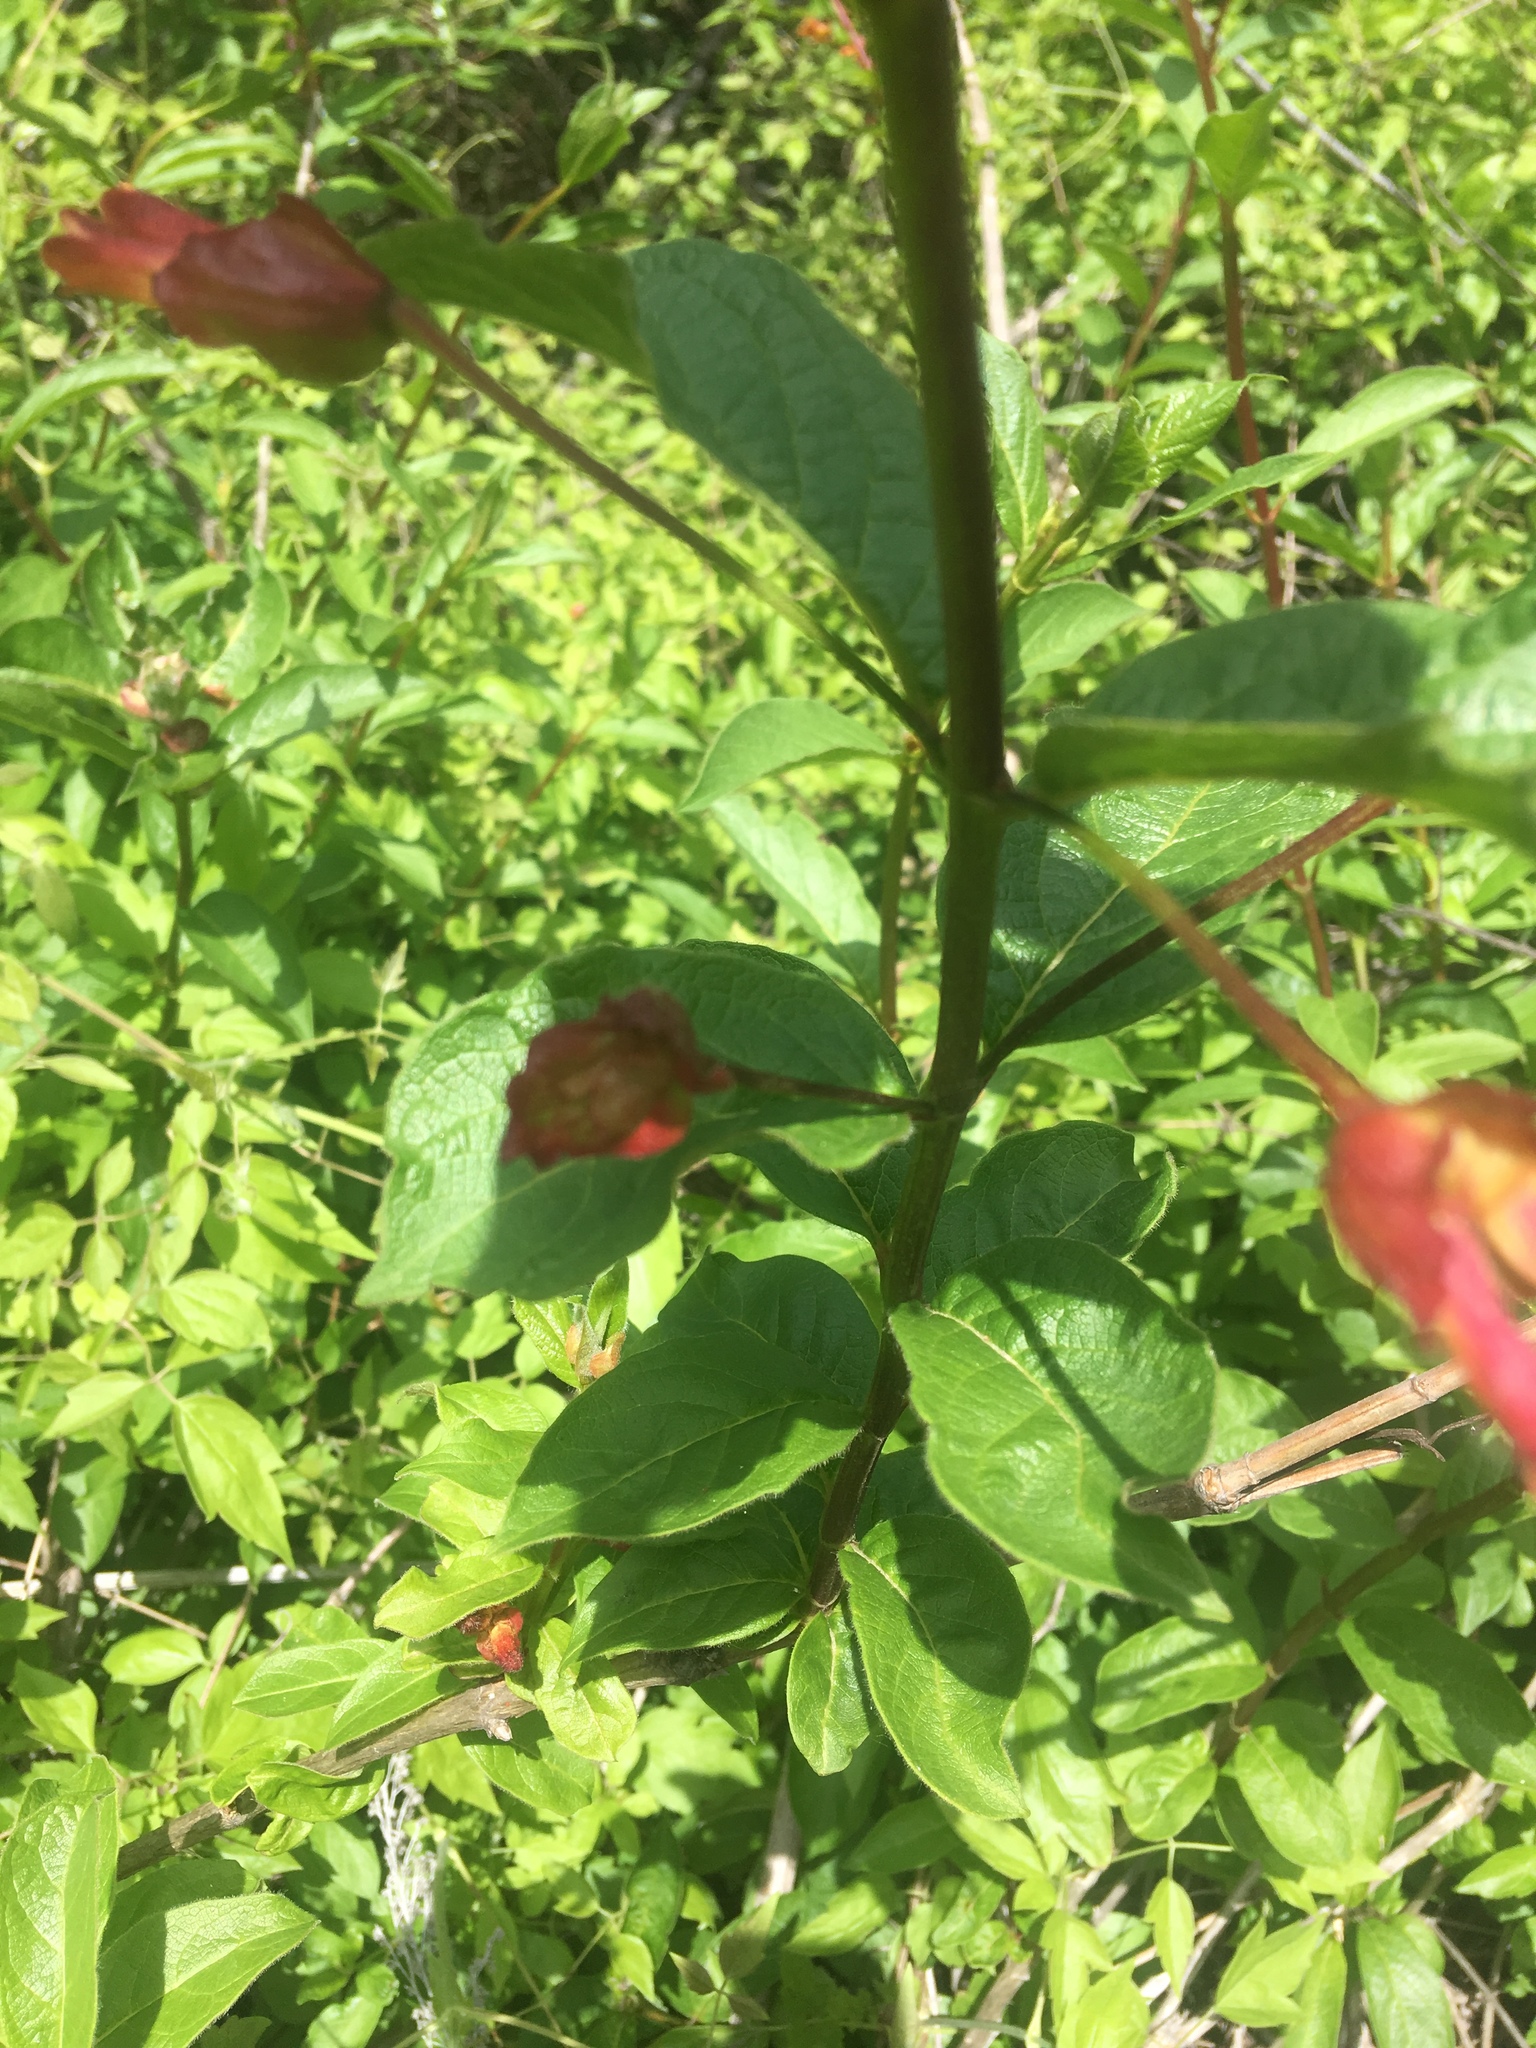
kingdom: Plantae
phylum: Tracheophyta
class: Magnoliopsida
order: Dipsacales
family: Caprifoliaceae
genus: Lonicera
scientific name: Lonicera involucrata
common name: Californian honeysuckle
